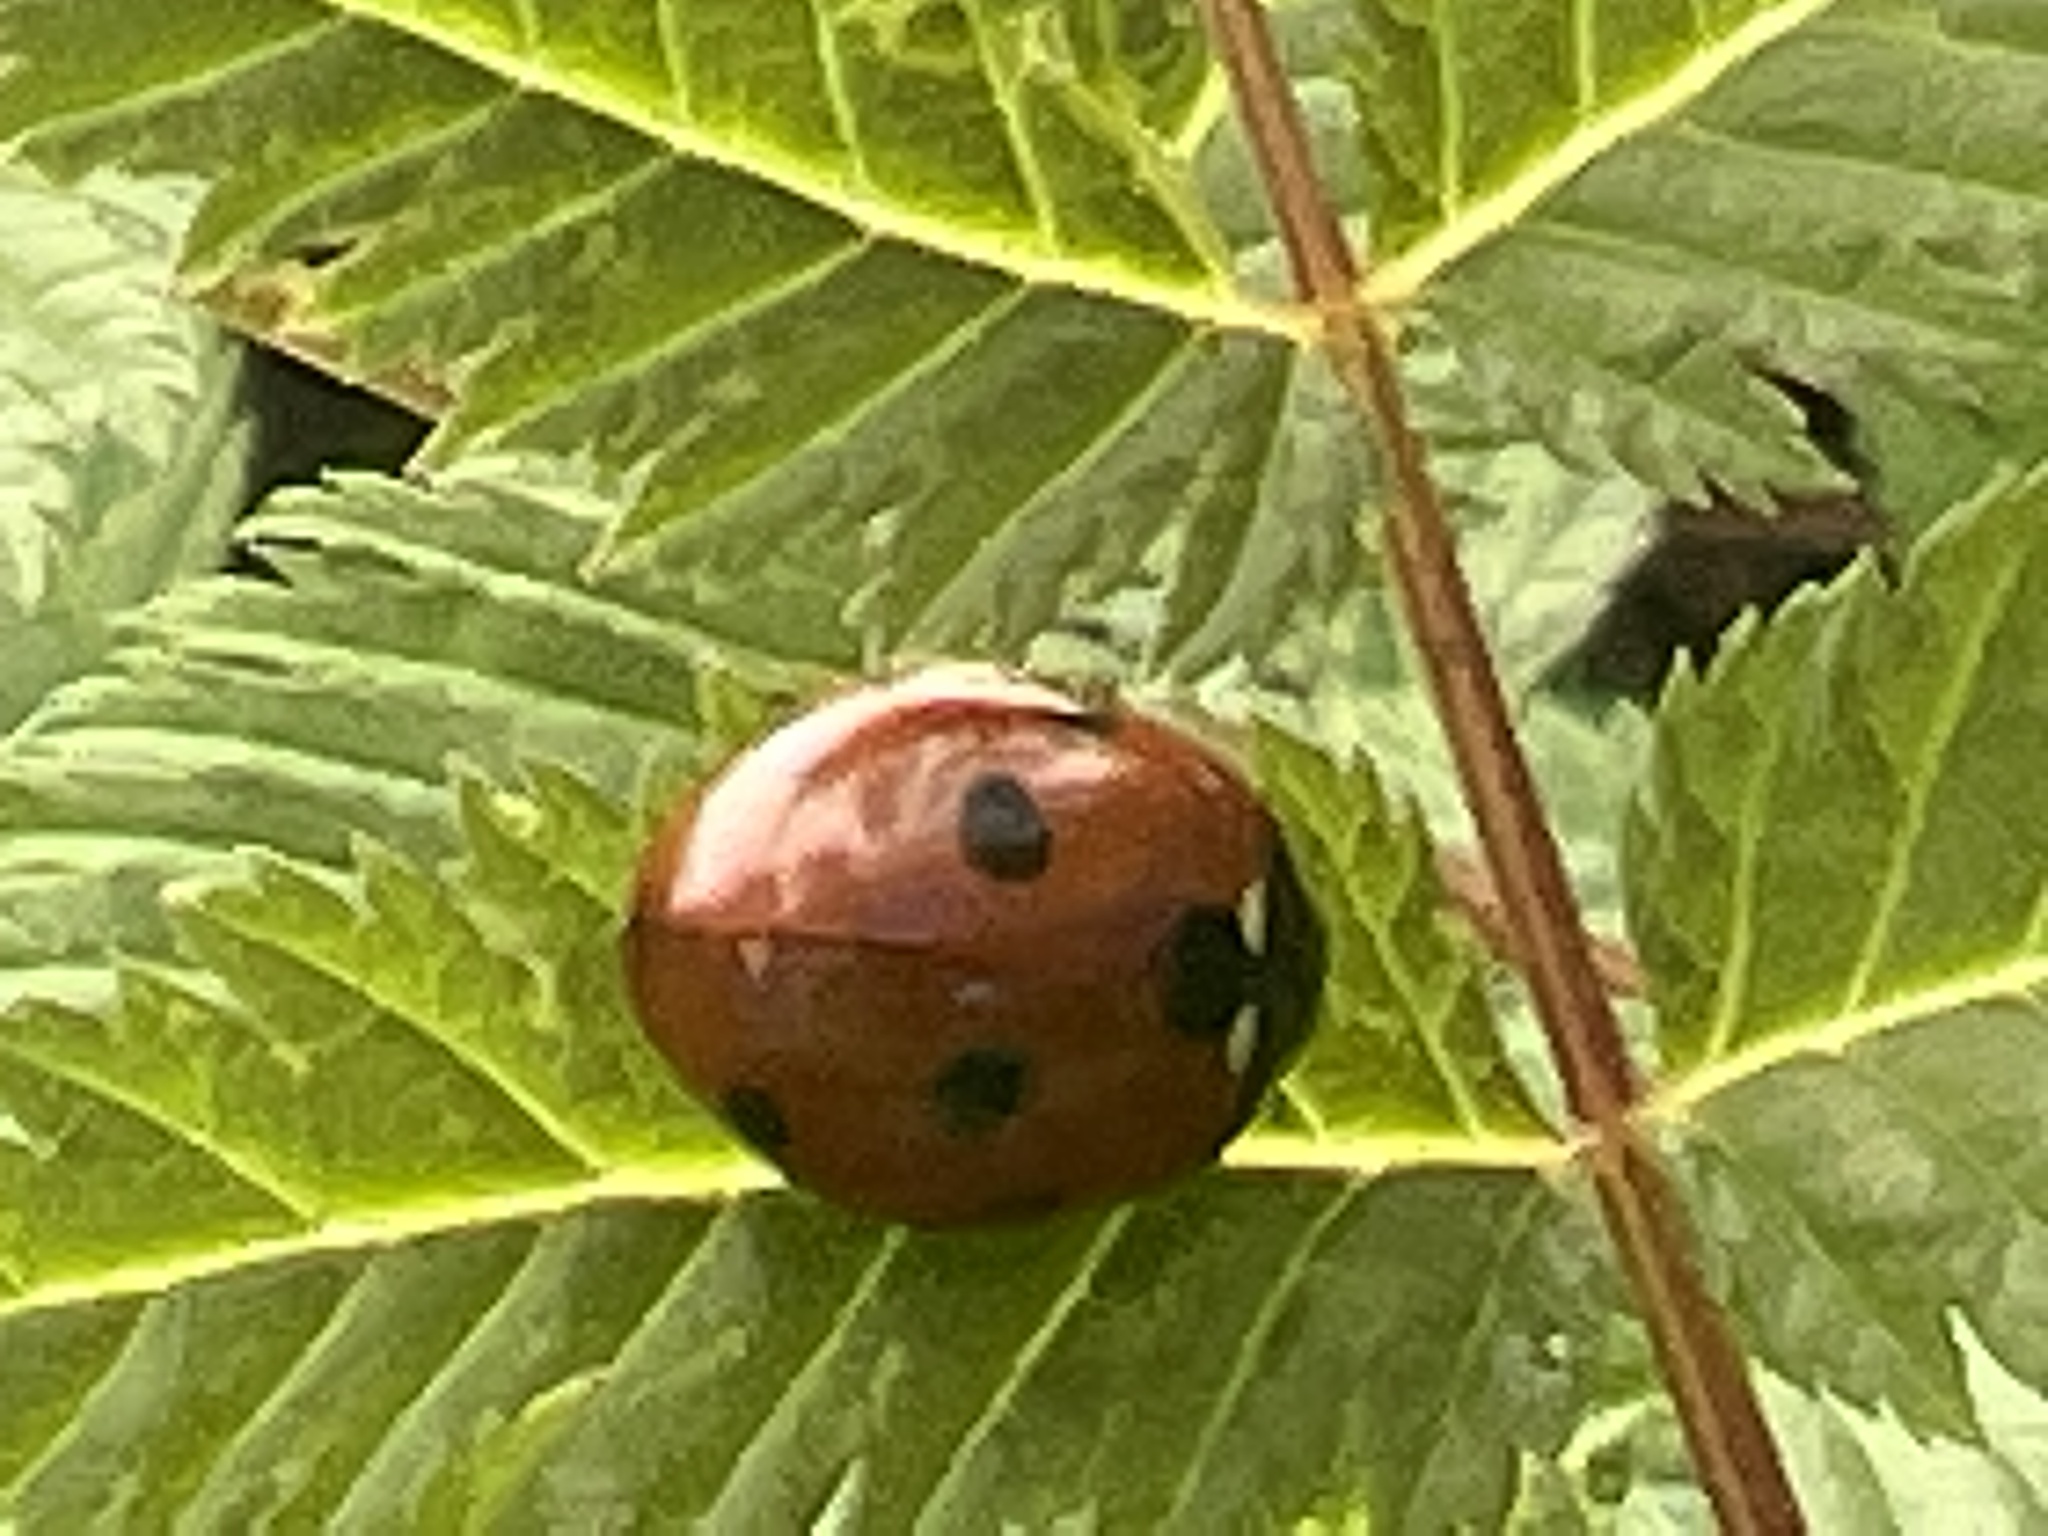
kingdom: Animalia
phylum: Arthropoda
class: Insecta
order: Coleoptera
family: Coccinellidae
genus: Coccinella
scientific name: Coccinella septempunctata
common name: Sevenspotted lady beetle
